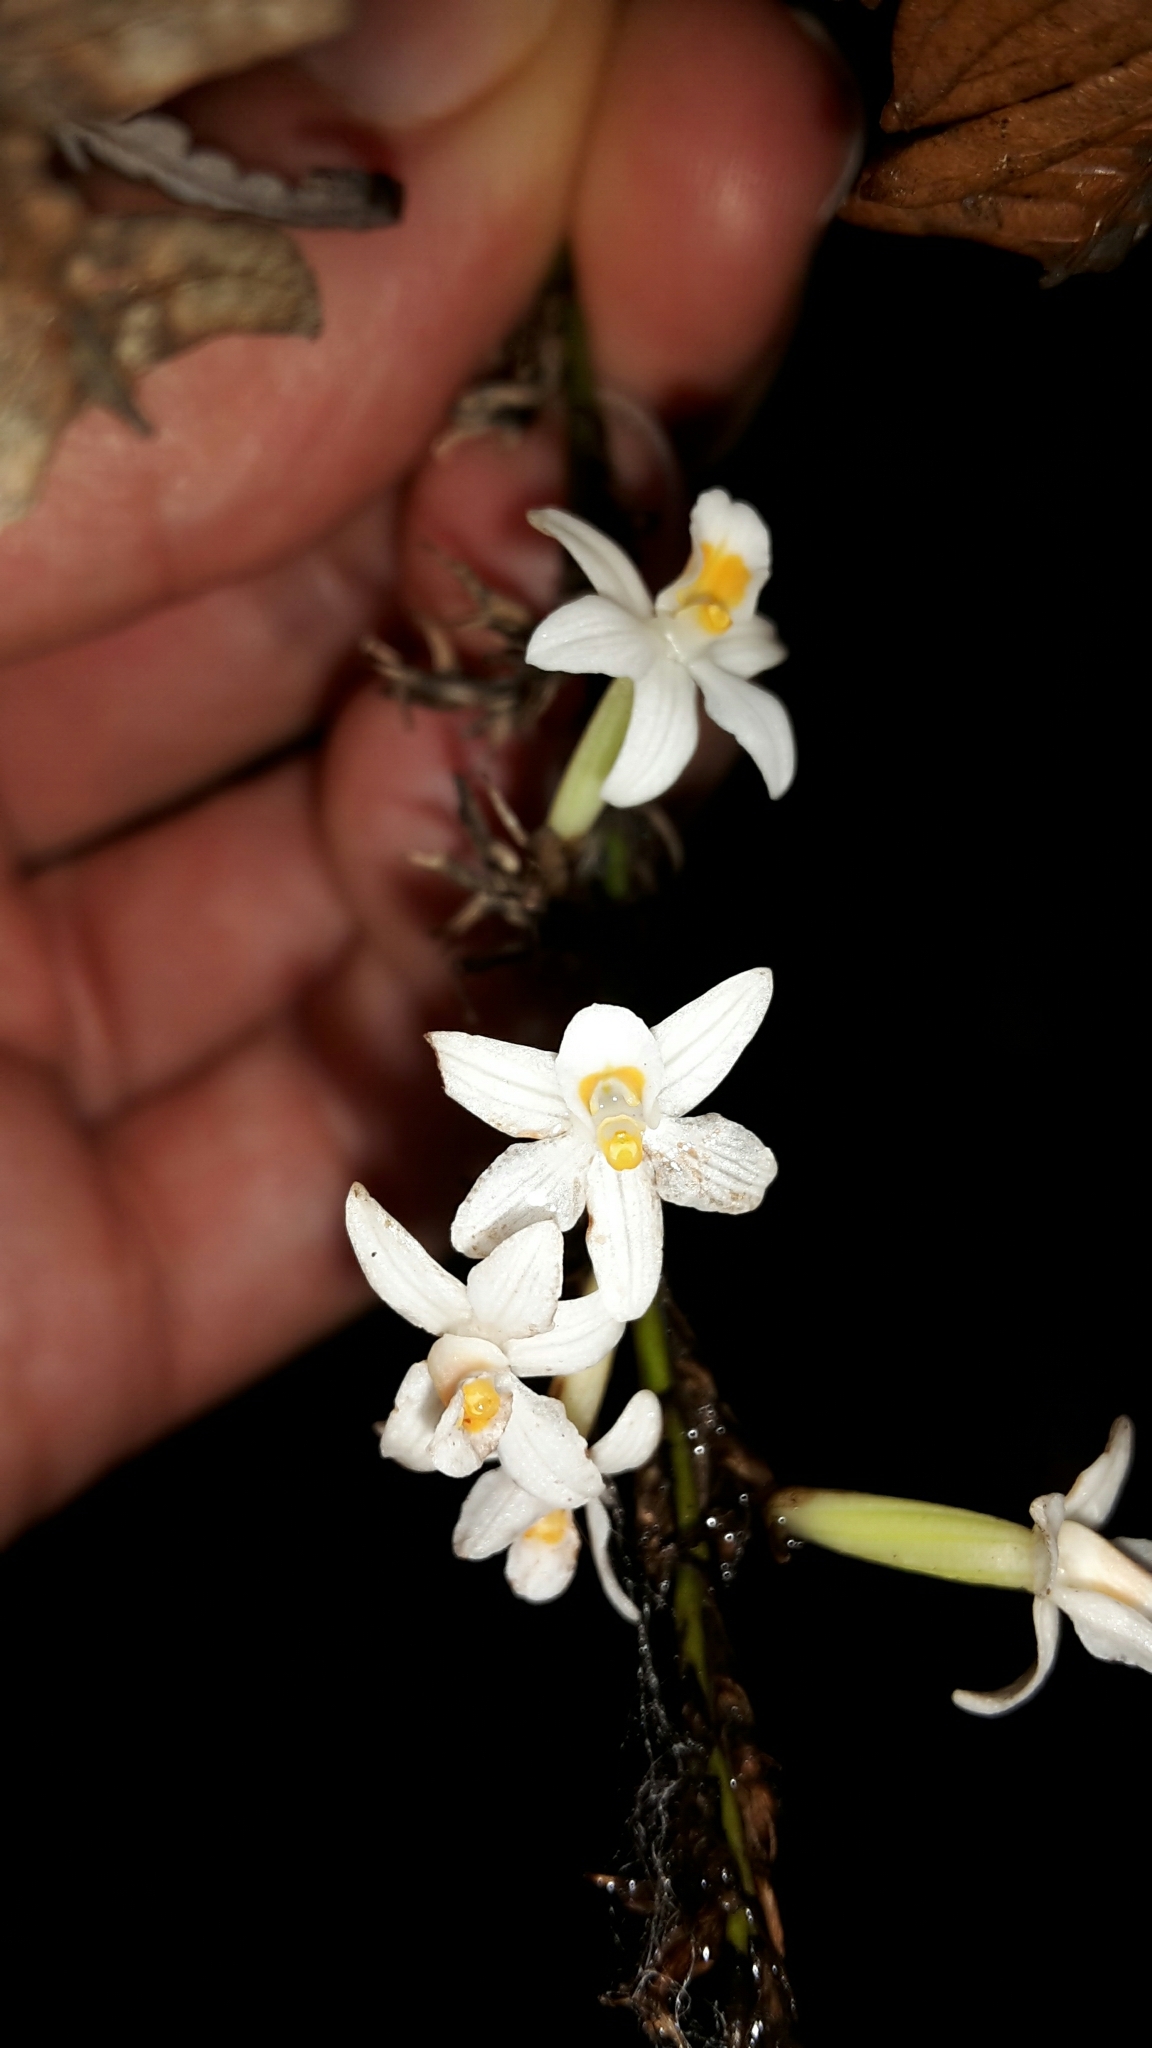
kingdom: Plantae
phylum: Tracheophyta
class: Liliopsida
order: Asparagales
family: Orchidaceae
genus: Earina
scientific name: Earina autumnalis
